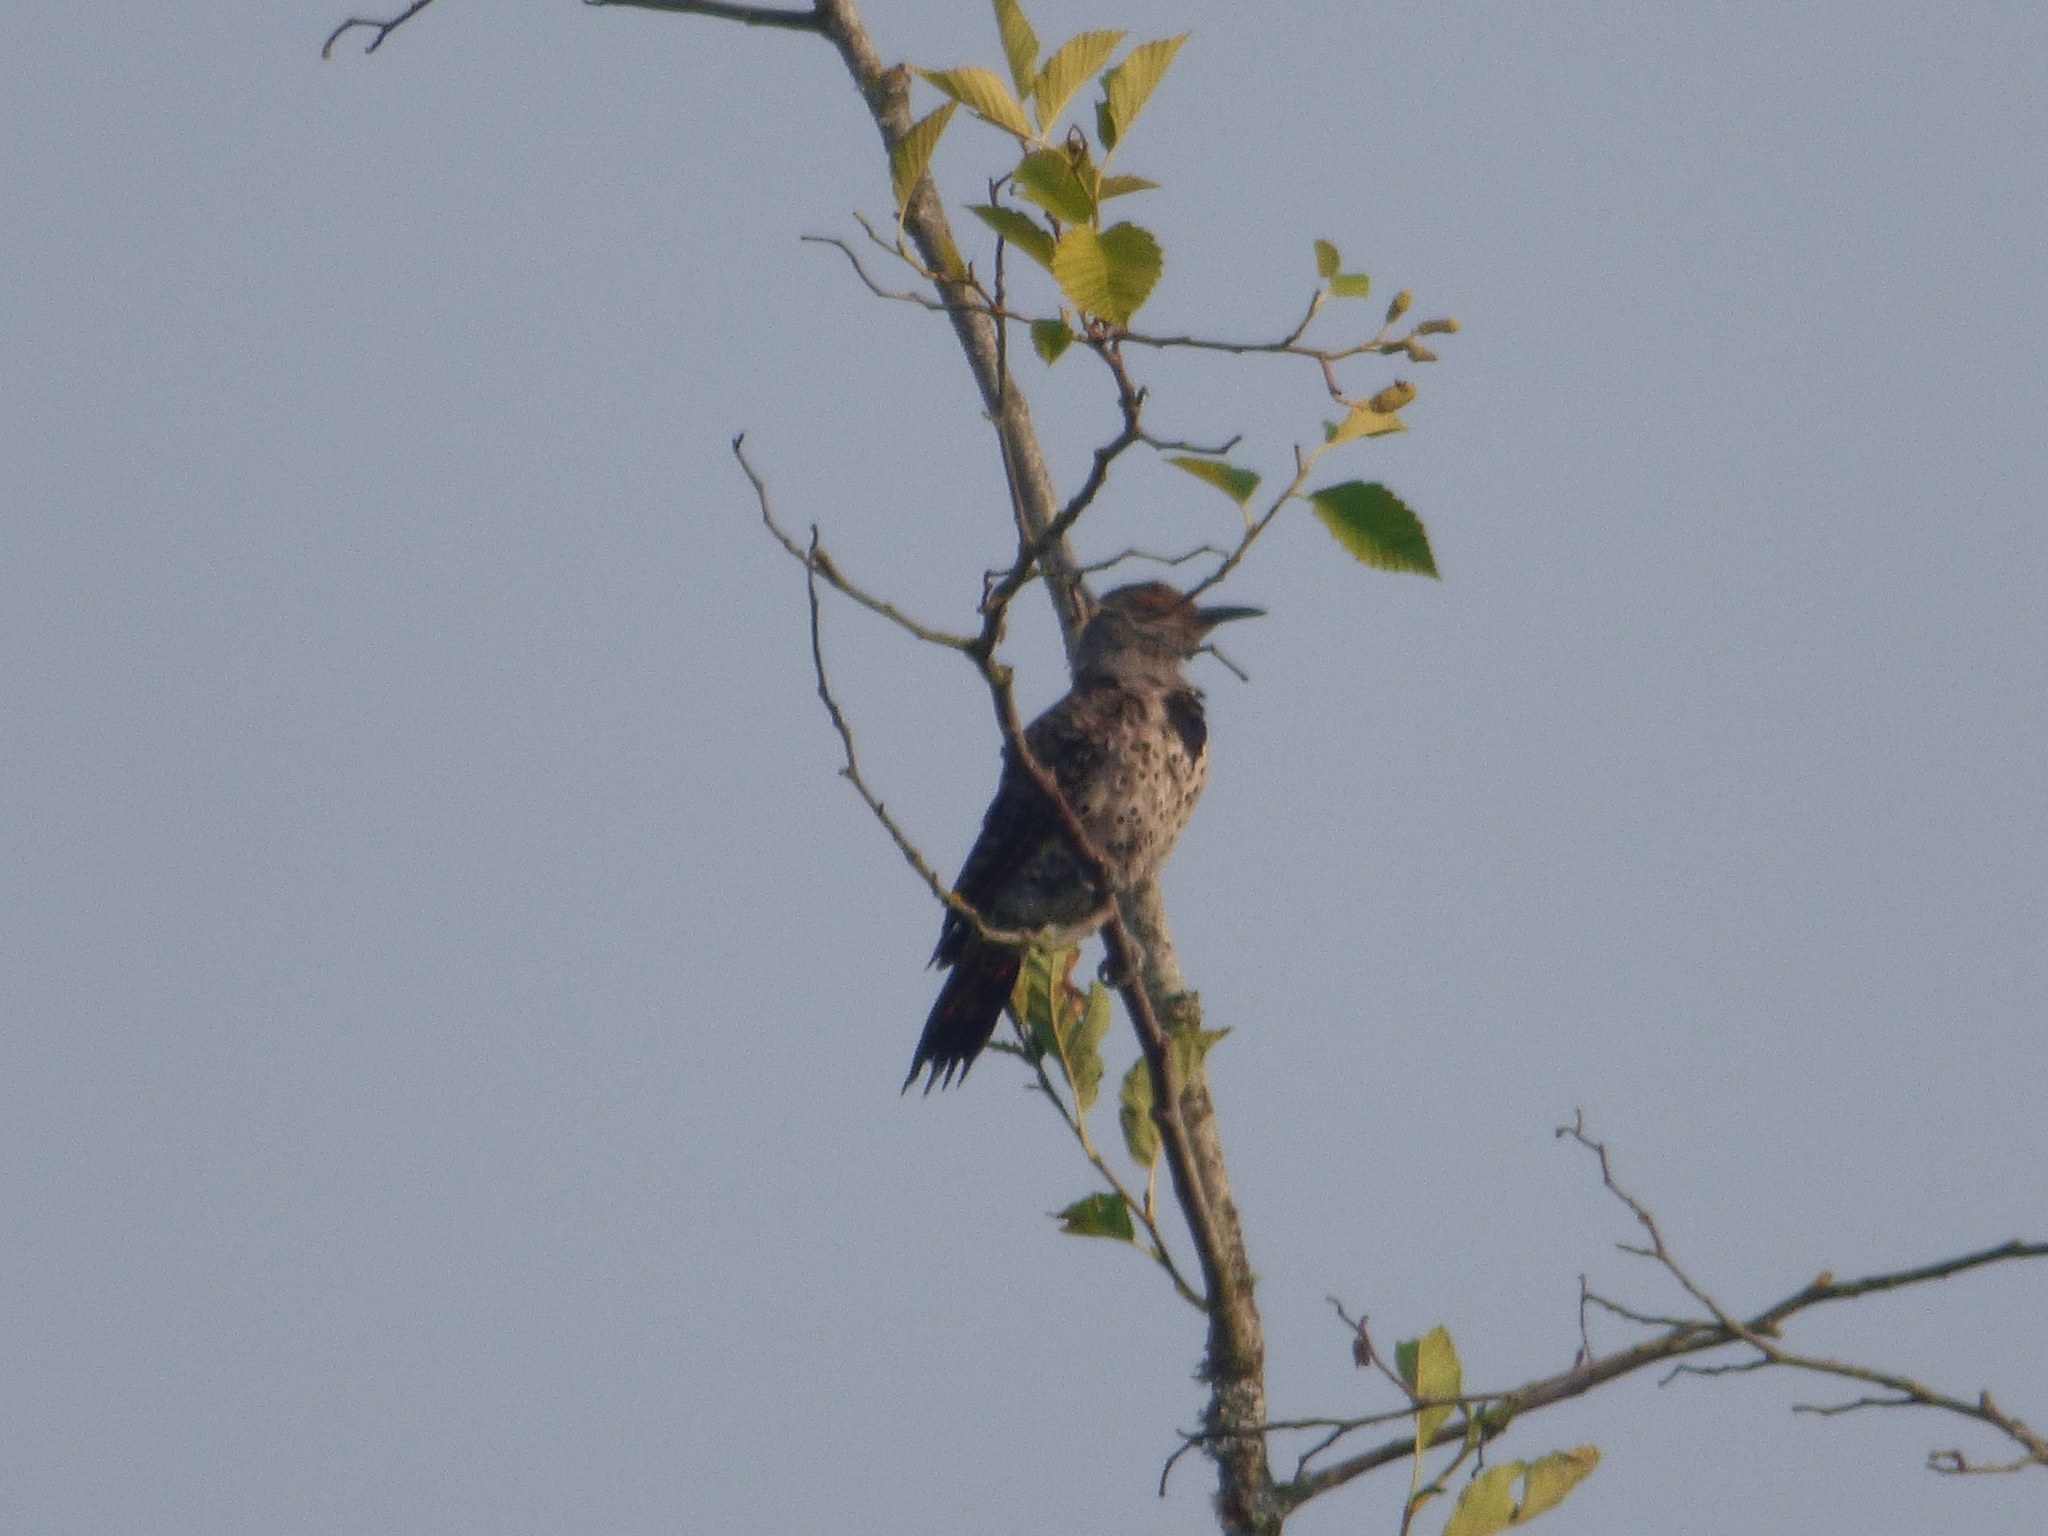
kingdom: Animalia
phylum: Chordata
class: Aves
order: Piciformes
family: Picidae
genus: Colaptes
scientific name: Colaptes auratus
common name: Northern flicker
